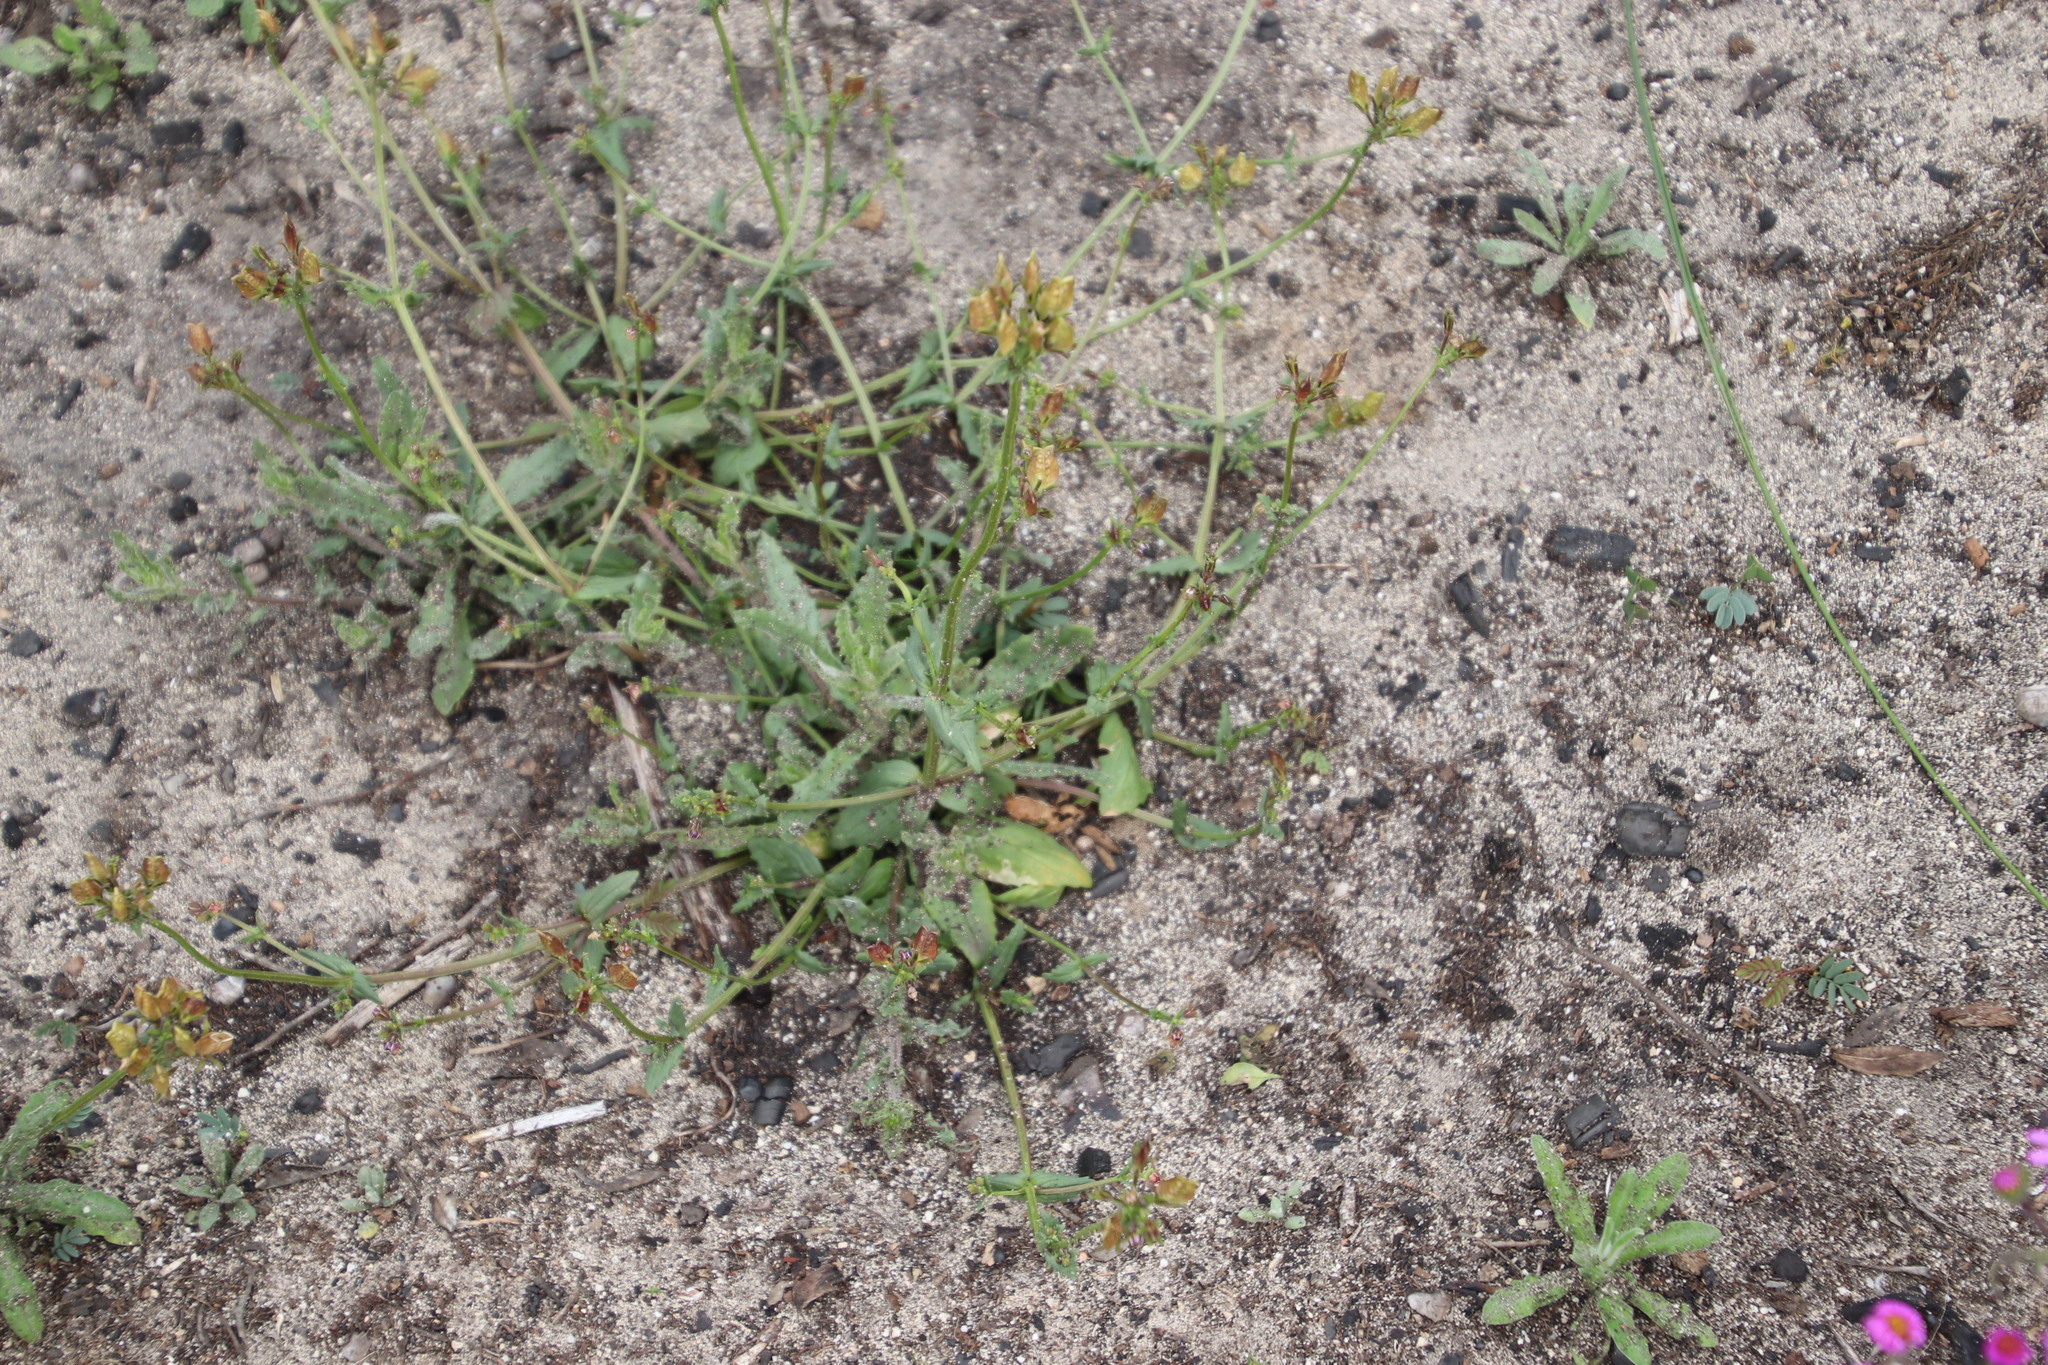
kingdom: Plantae
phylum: Tracheophyta
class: Magnoliopsida
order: Lamiales
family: Scrophulariaceae
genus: Nemesia
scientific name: Nemesia barbata
